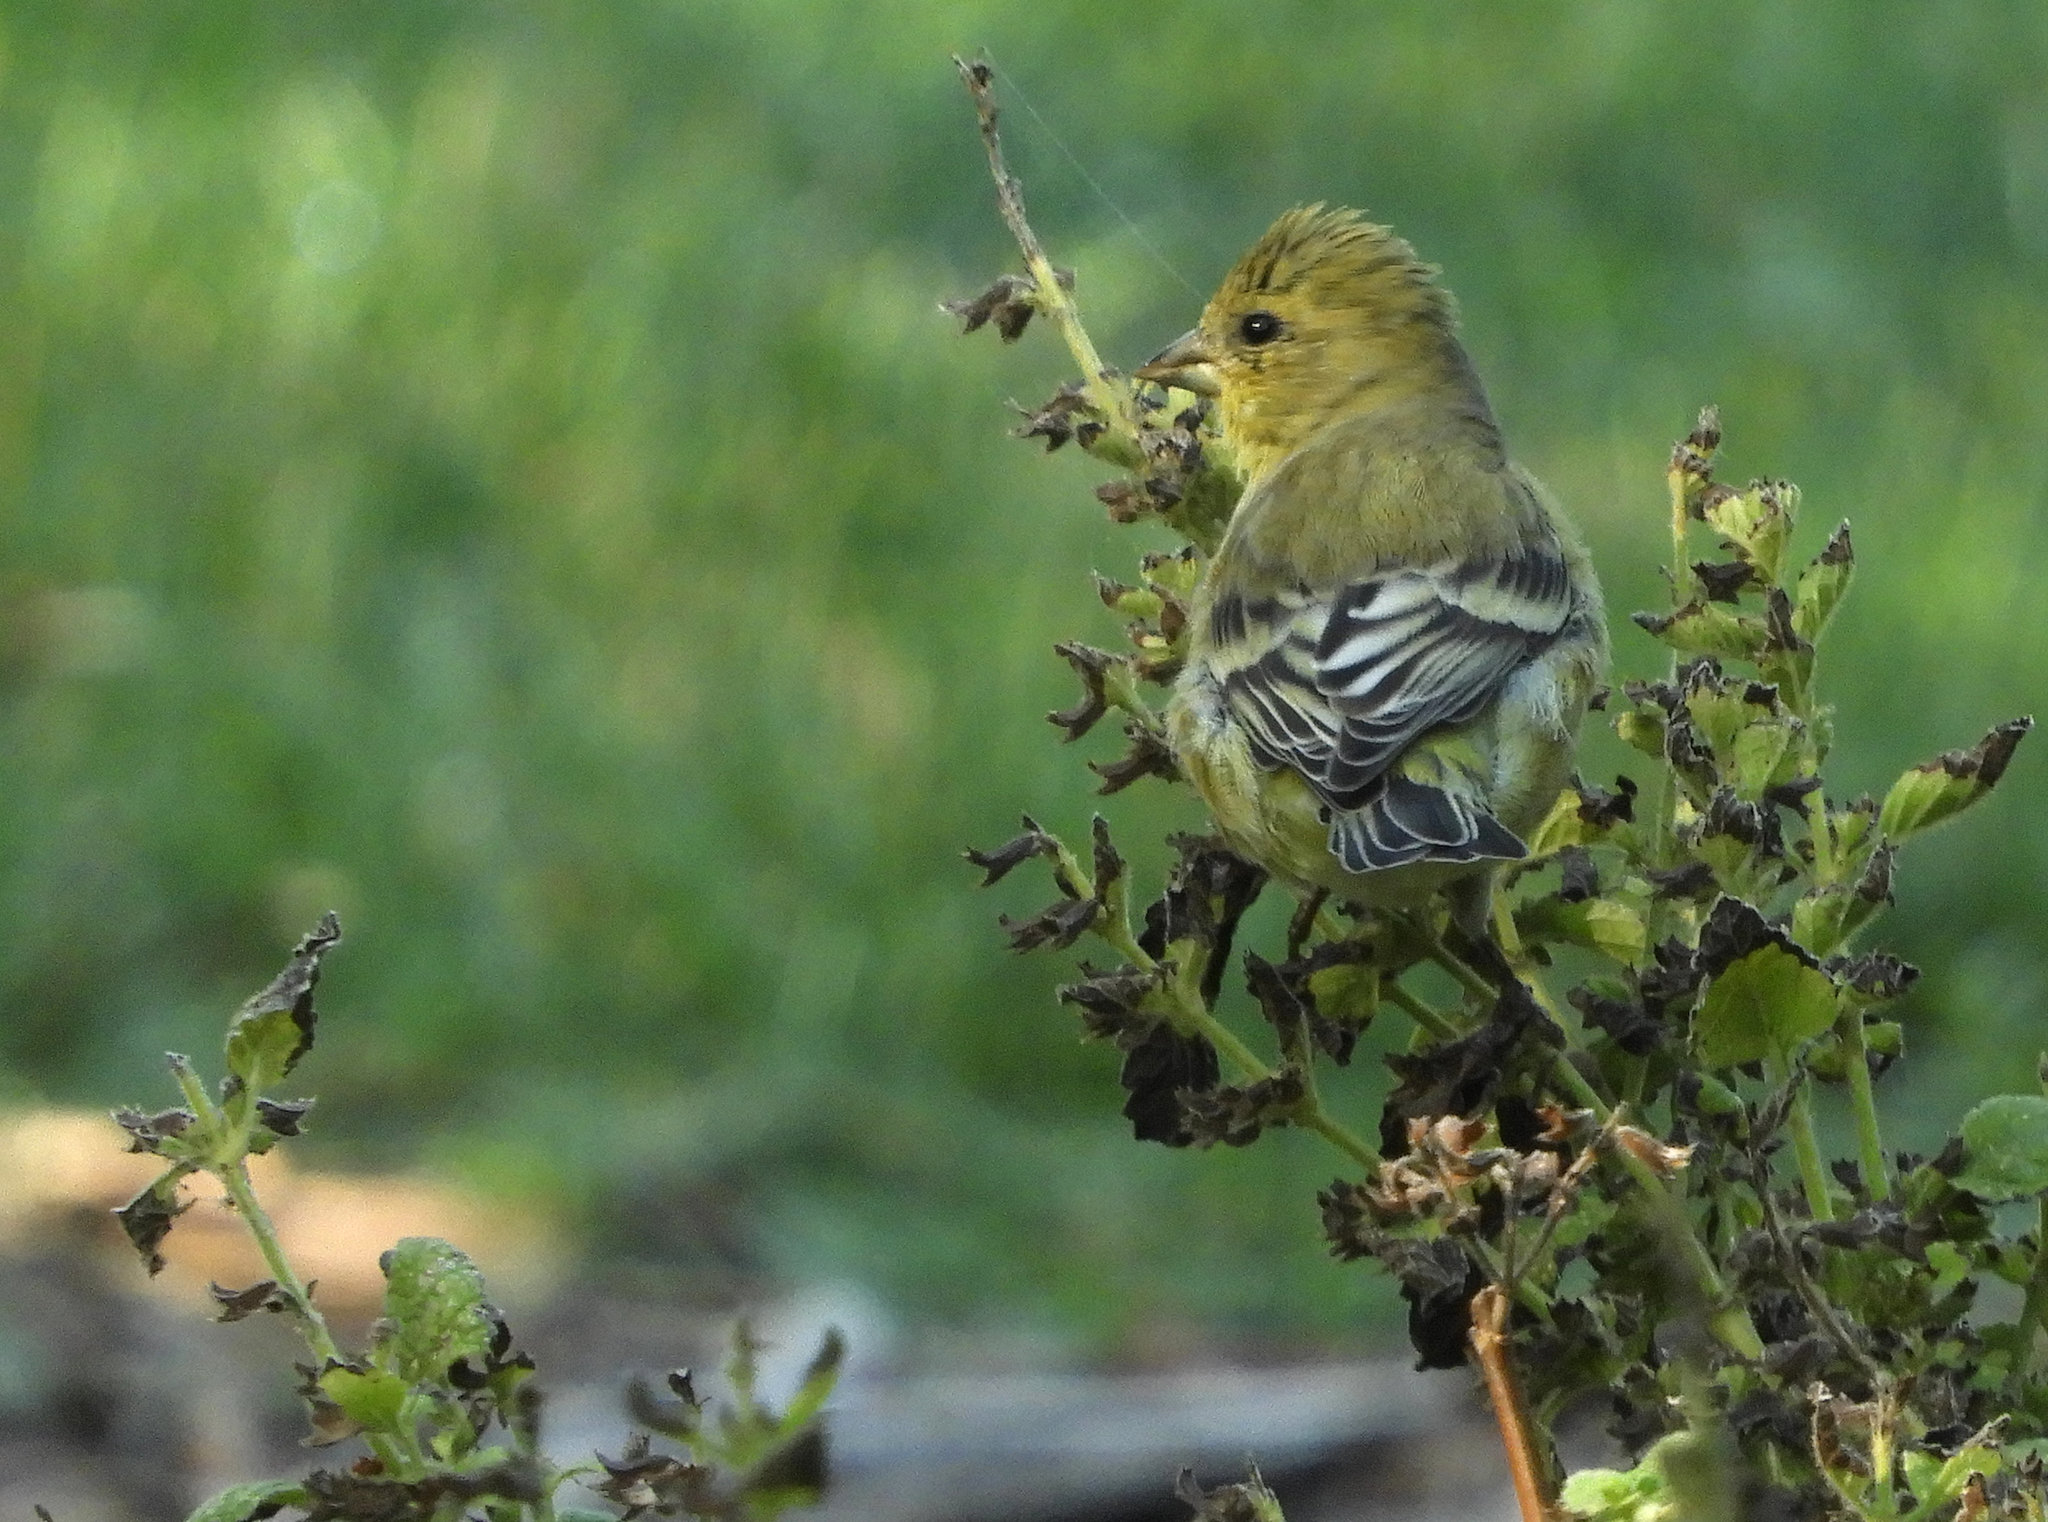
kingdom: Animalia
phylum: Chordata
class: Aves
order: Passeriformes
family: Fringillidae
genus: Spinus
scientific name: Spinus psaltria
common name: Lesser goldfinch
